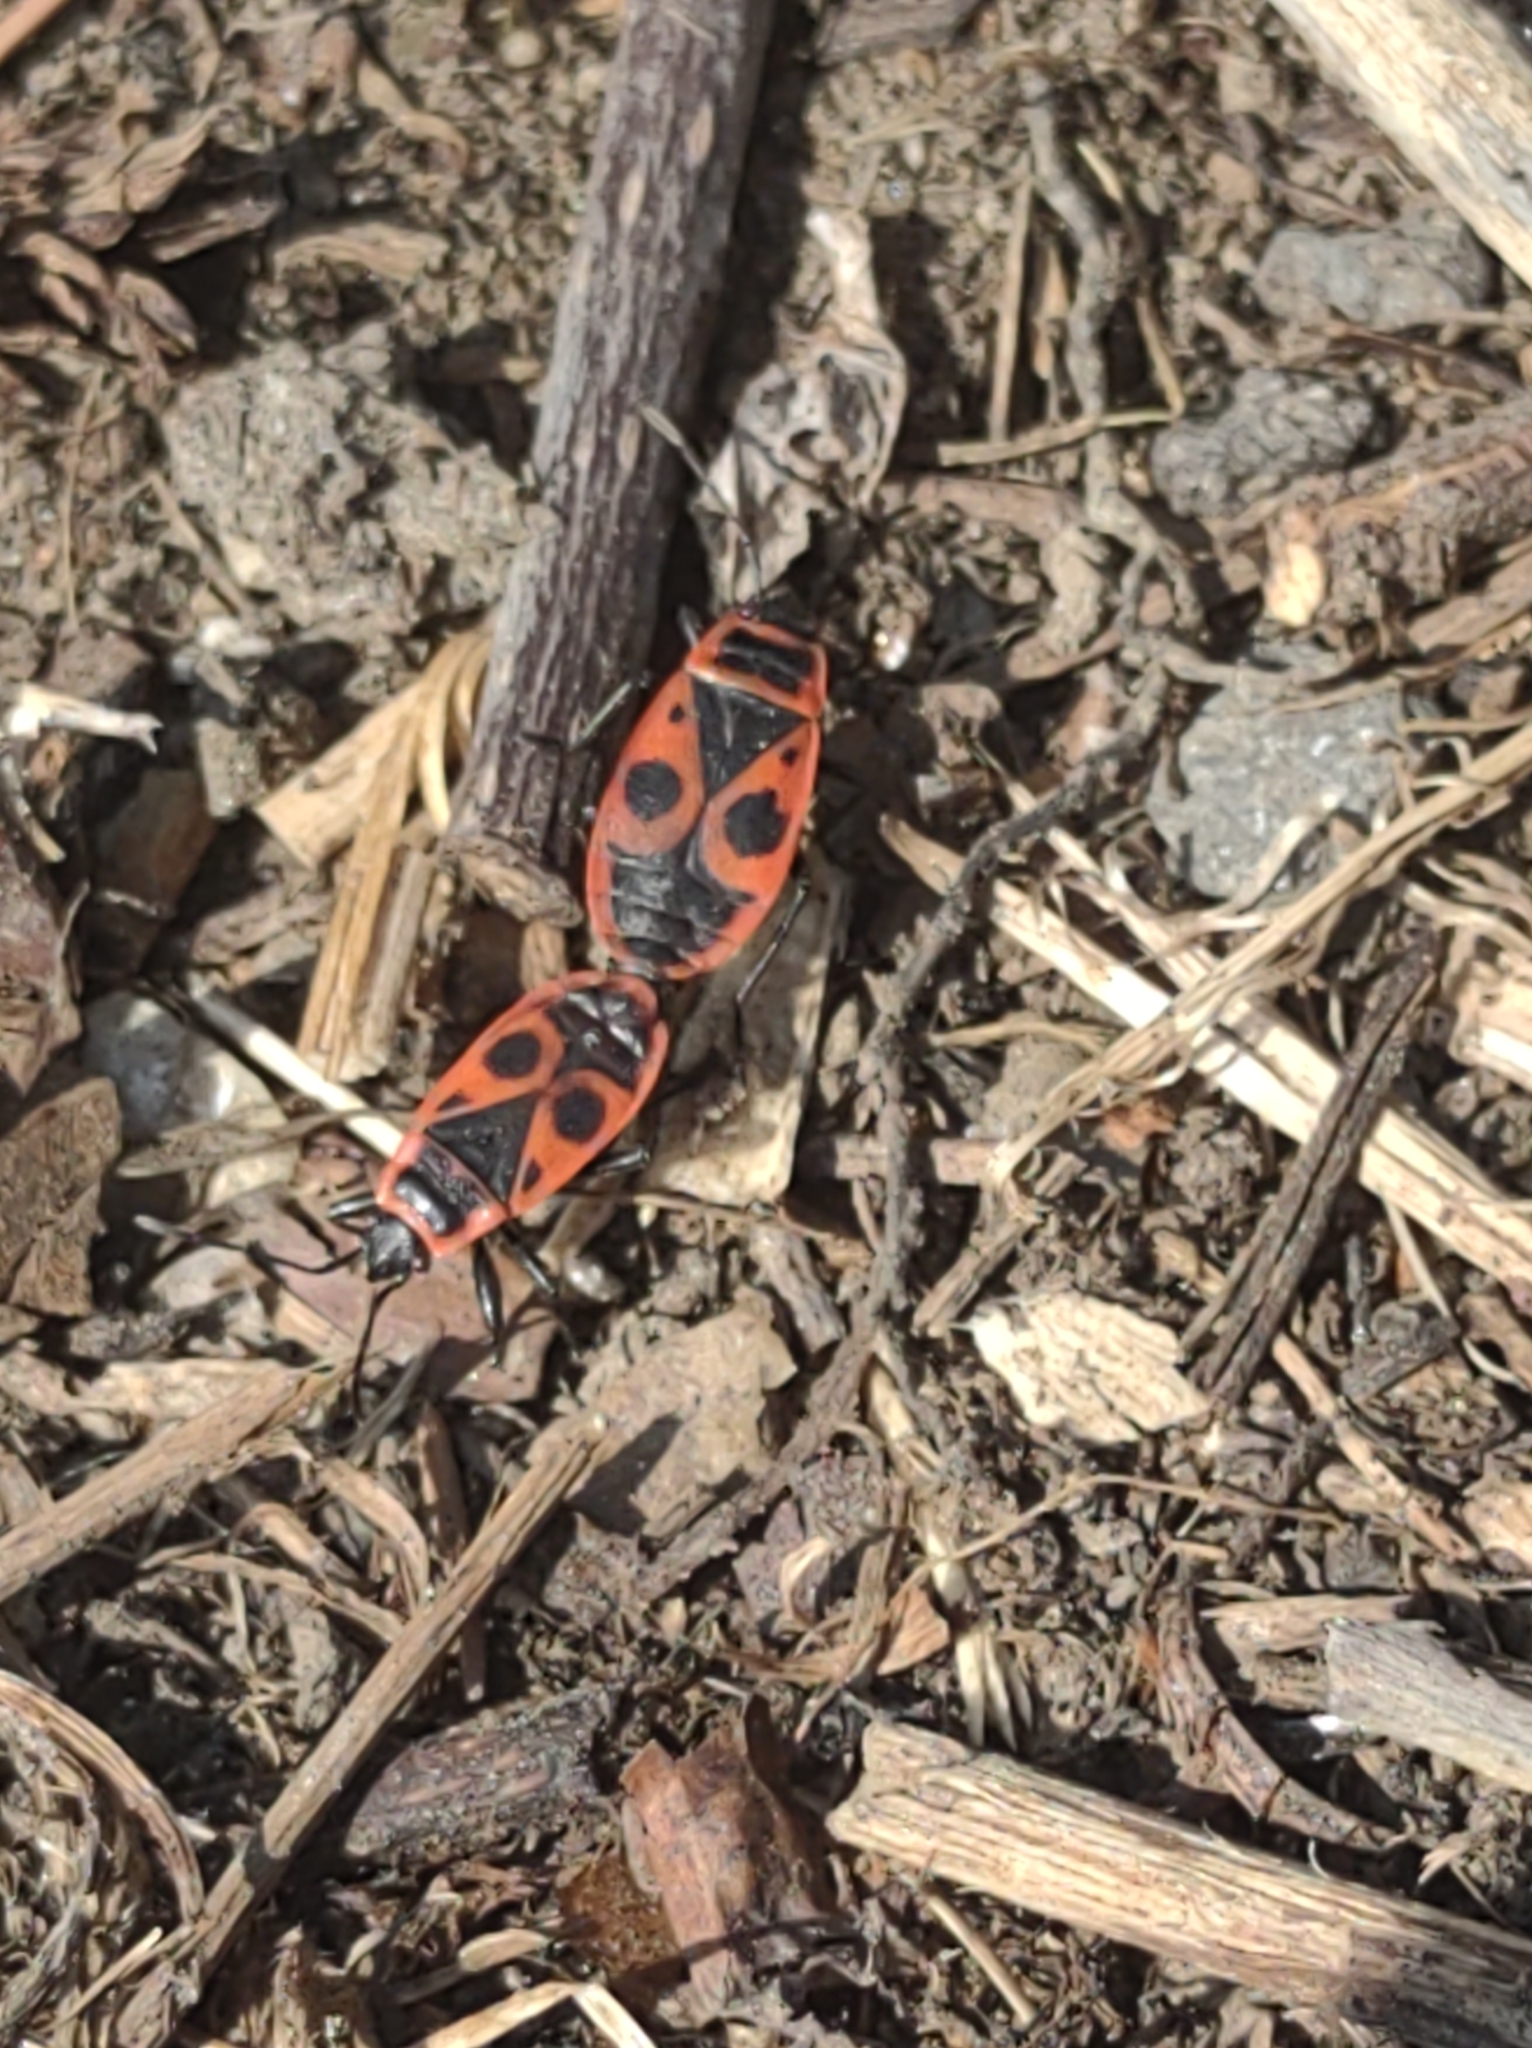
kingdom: Animalia
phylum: Arthropoda
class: Insecta
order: Hemiptera
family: Pyrrhocoridae
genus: Pyrrhocoris
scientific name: Pyrrhocoris apterus
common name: Firebug
